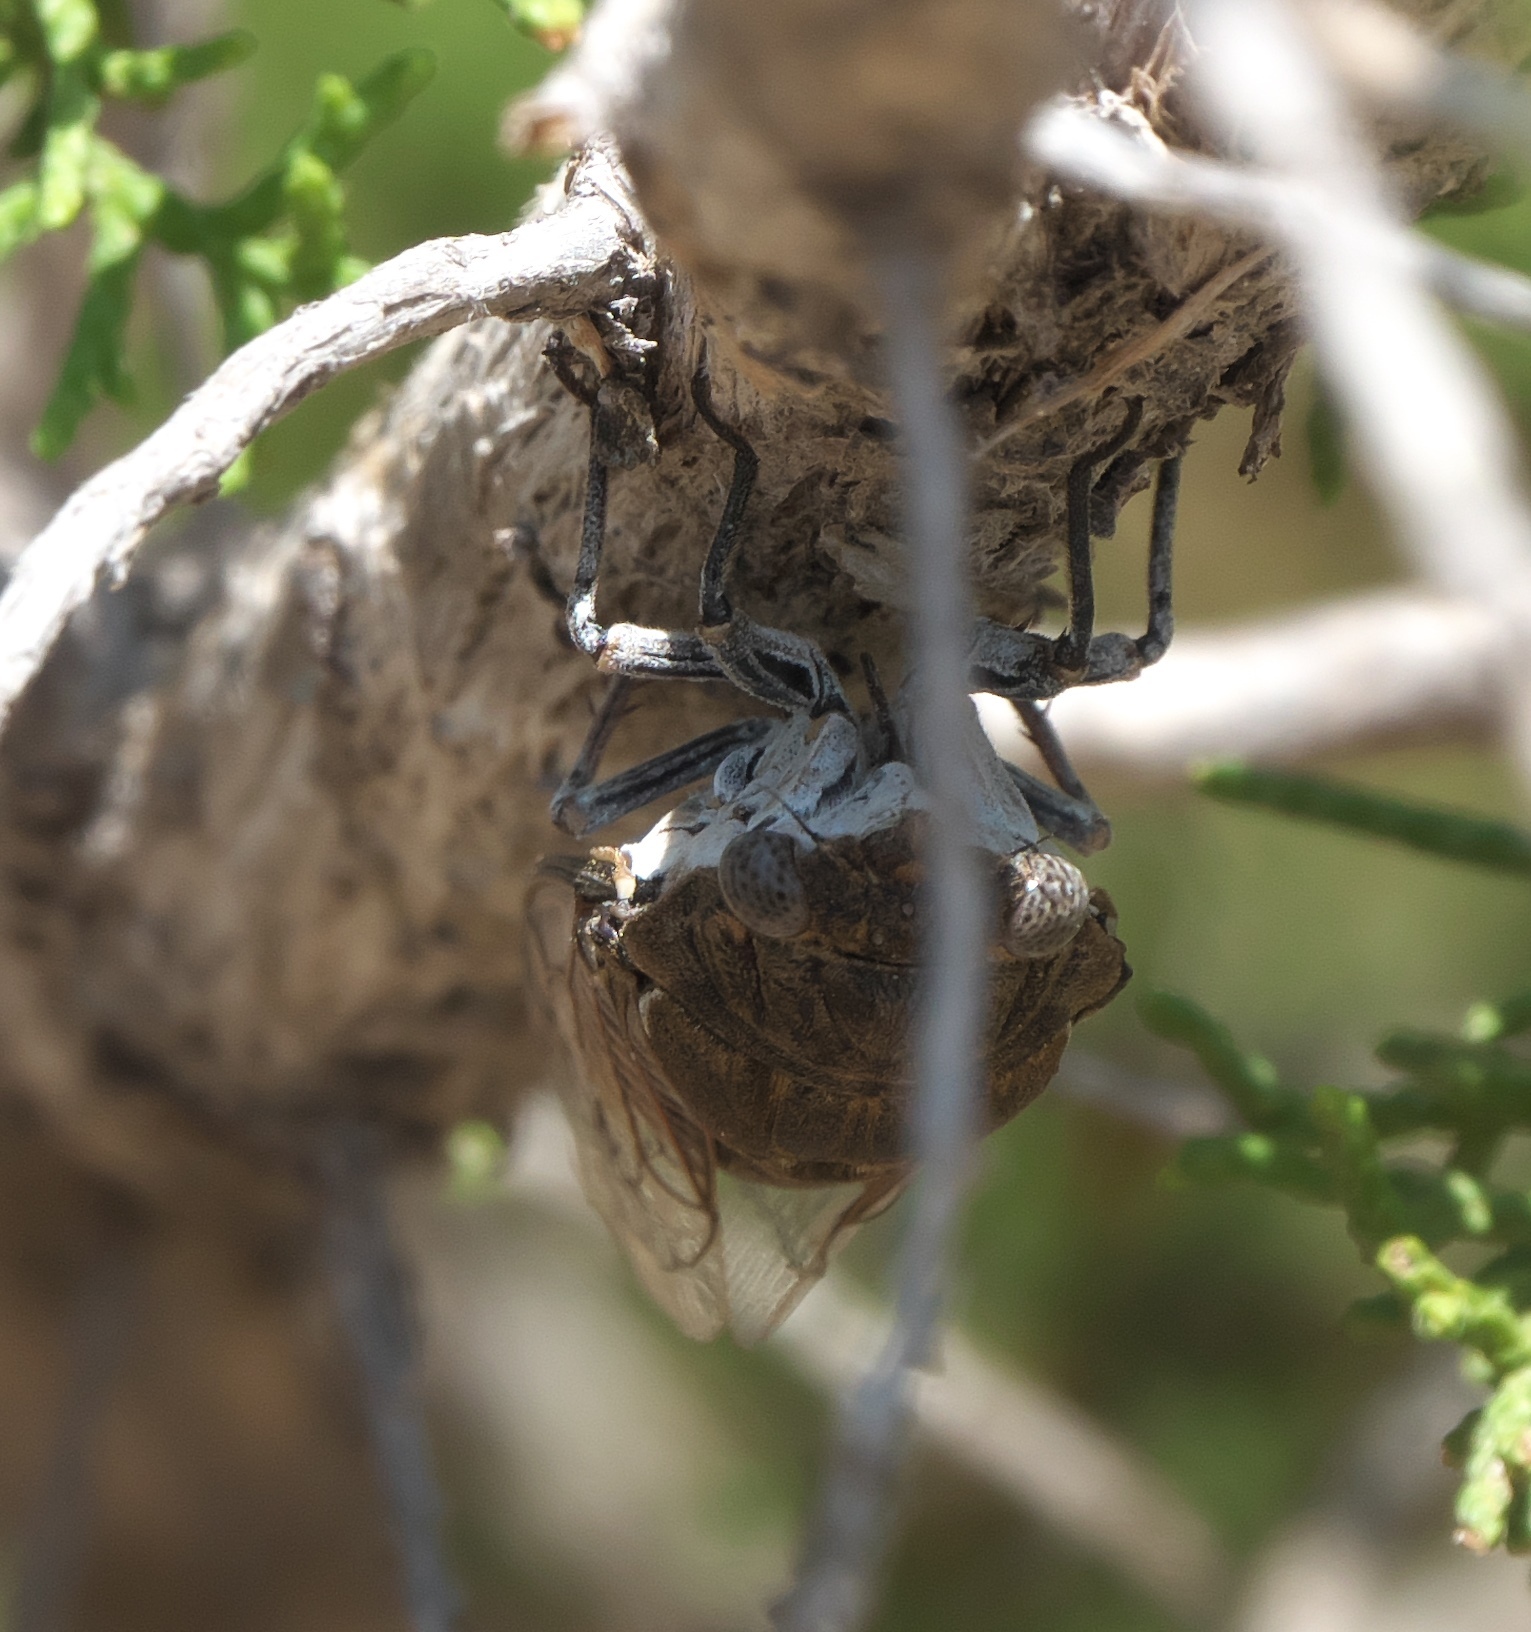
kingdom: Animalia
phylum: Arthropoda
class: Insecta
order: Hemiptera
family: Cicadidae
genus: Cacama
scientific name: Cacama valvata
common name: Cactus dodger
